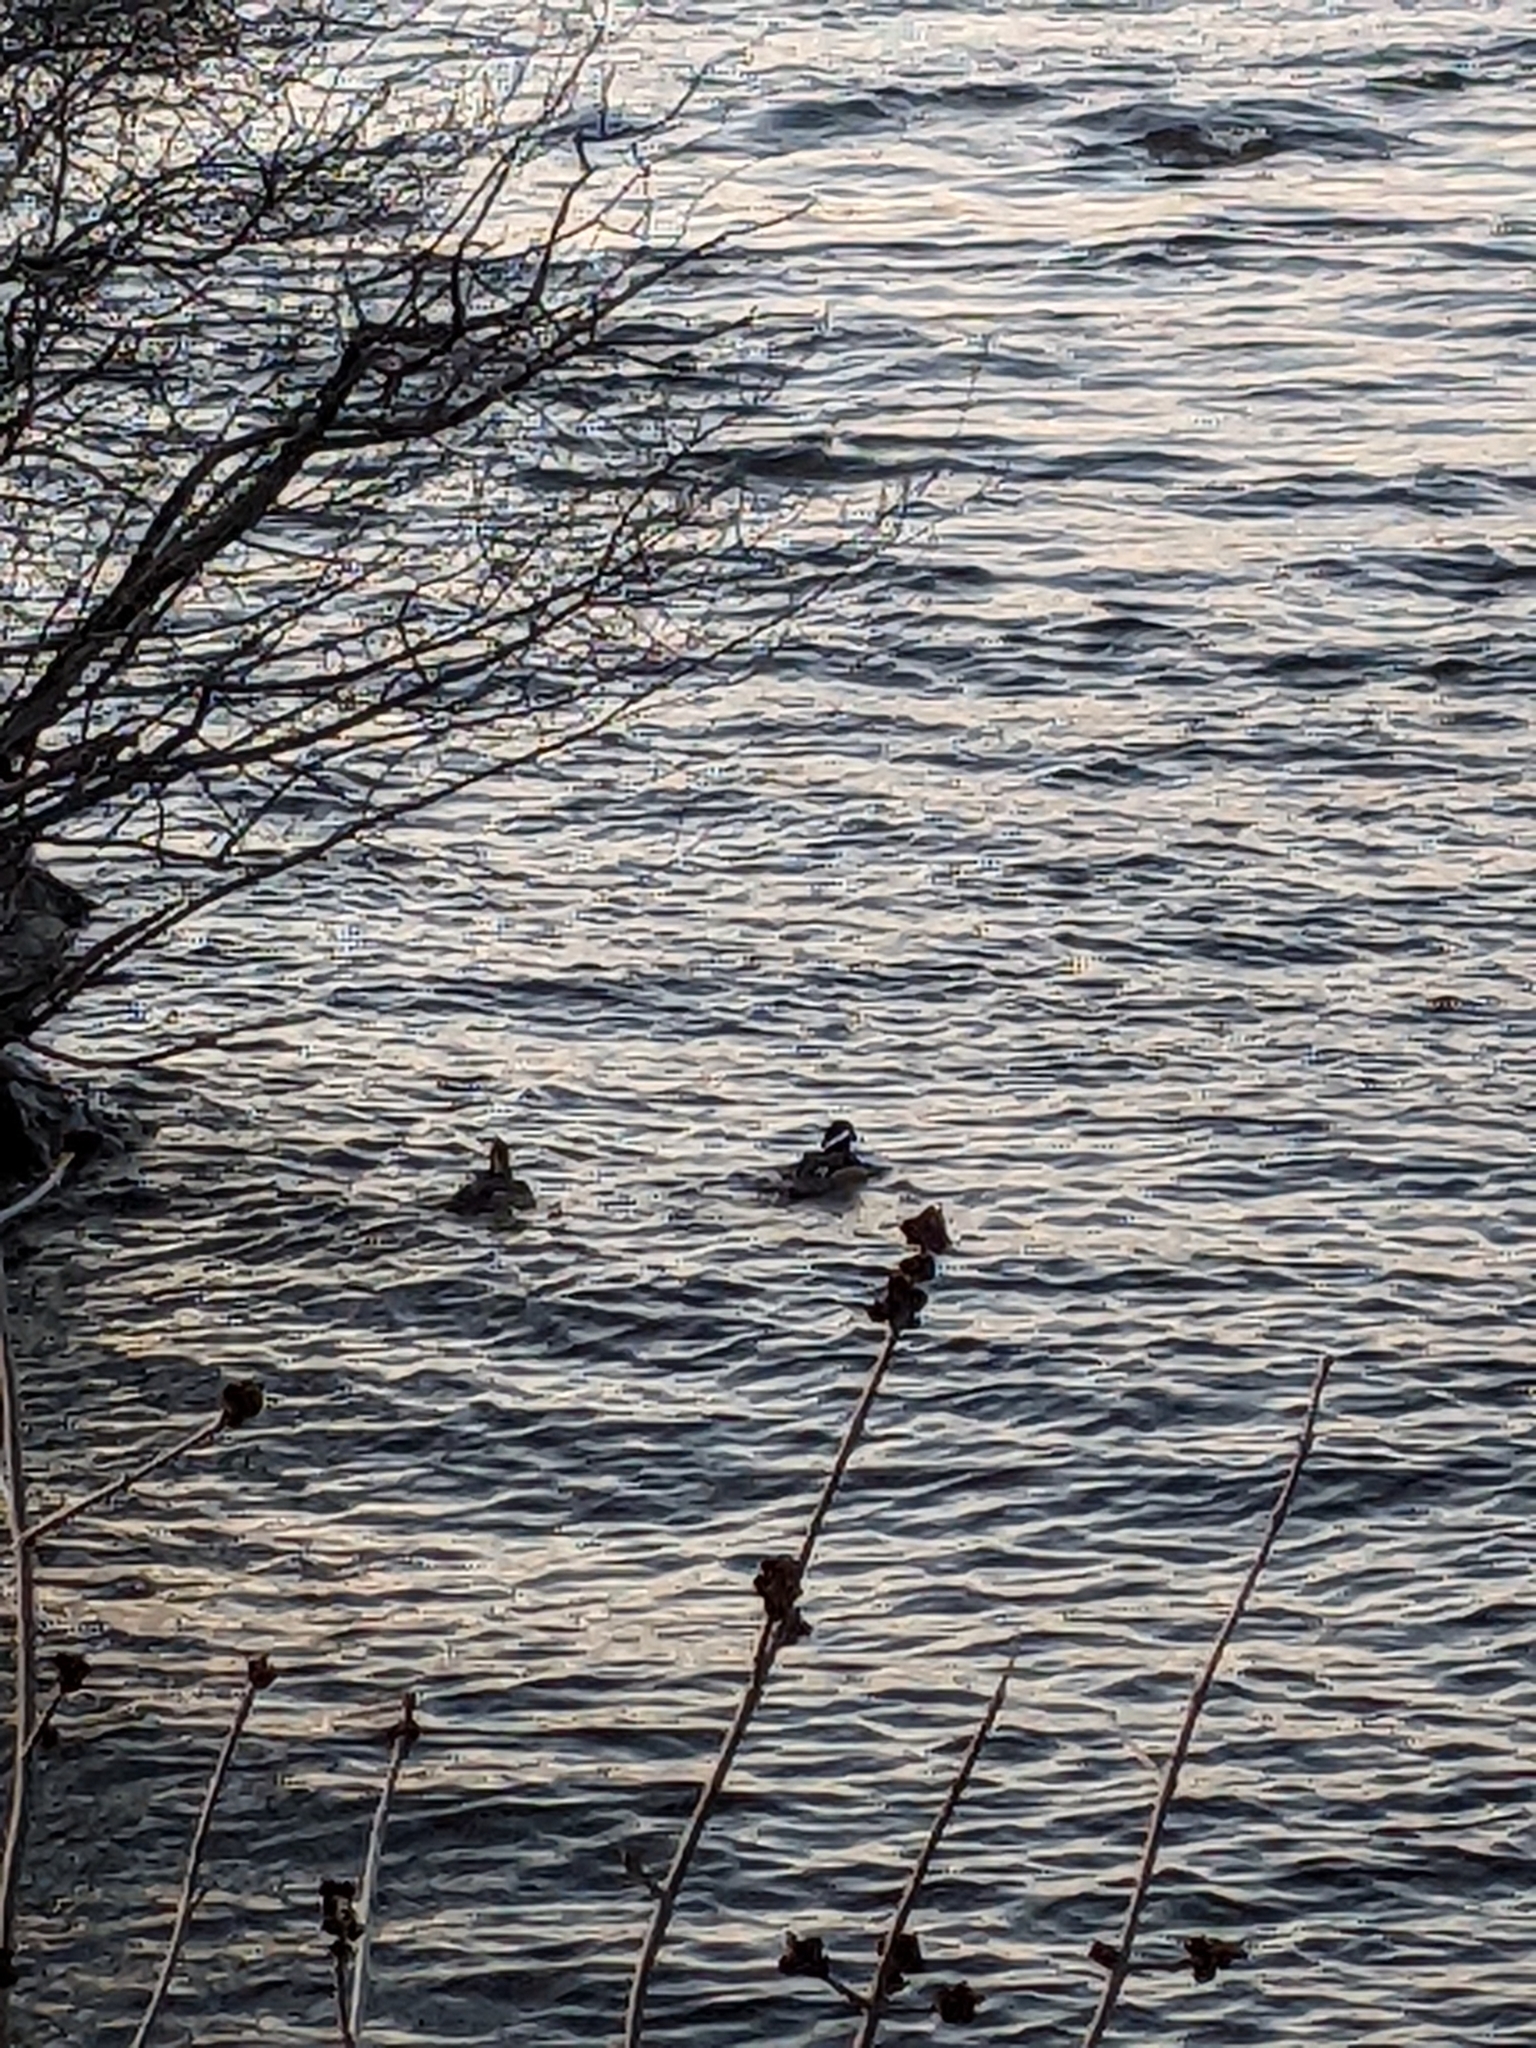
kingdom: Animalia
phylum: Chordata
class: Aves
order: Anseriformes
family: Anatidae
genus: Lophodytes
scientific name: Lophodytes cucullatus
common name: Hooded merganser
